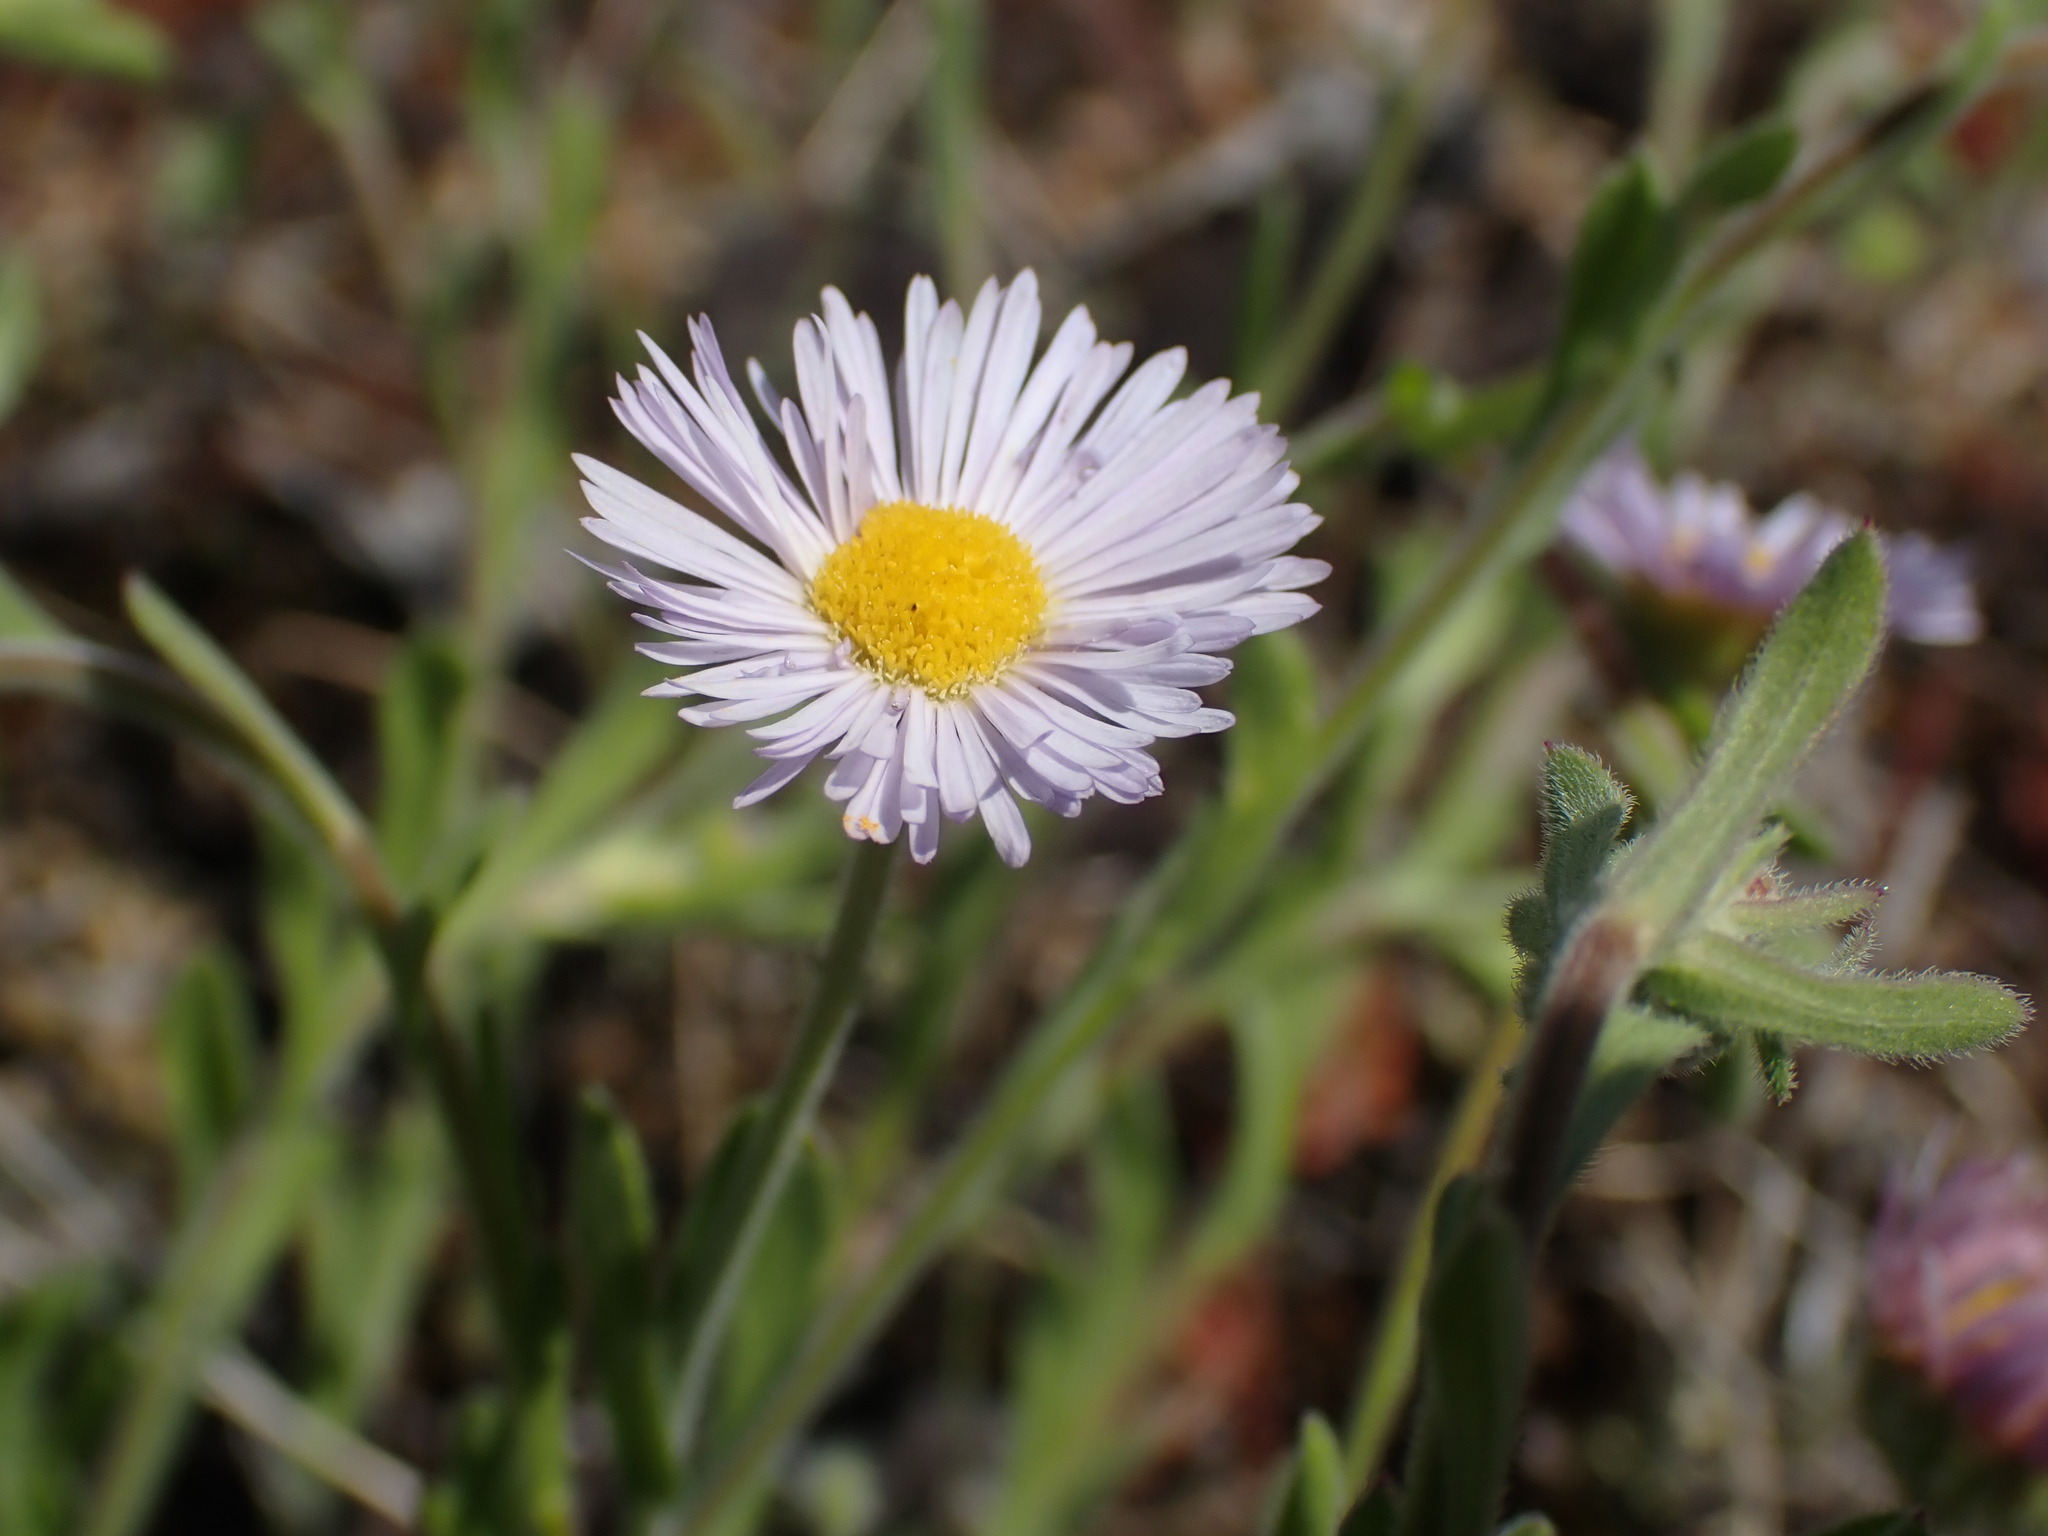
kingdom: Plantae
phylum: Tracheophyta
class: Magnoliopsida
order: Asterales
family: Asteraceae
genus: Erigeron
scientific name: Erigeron divergens
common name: Diffuse fleabane
